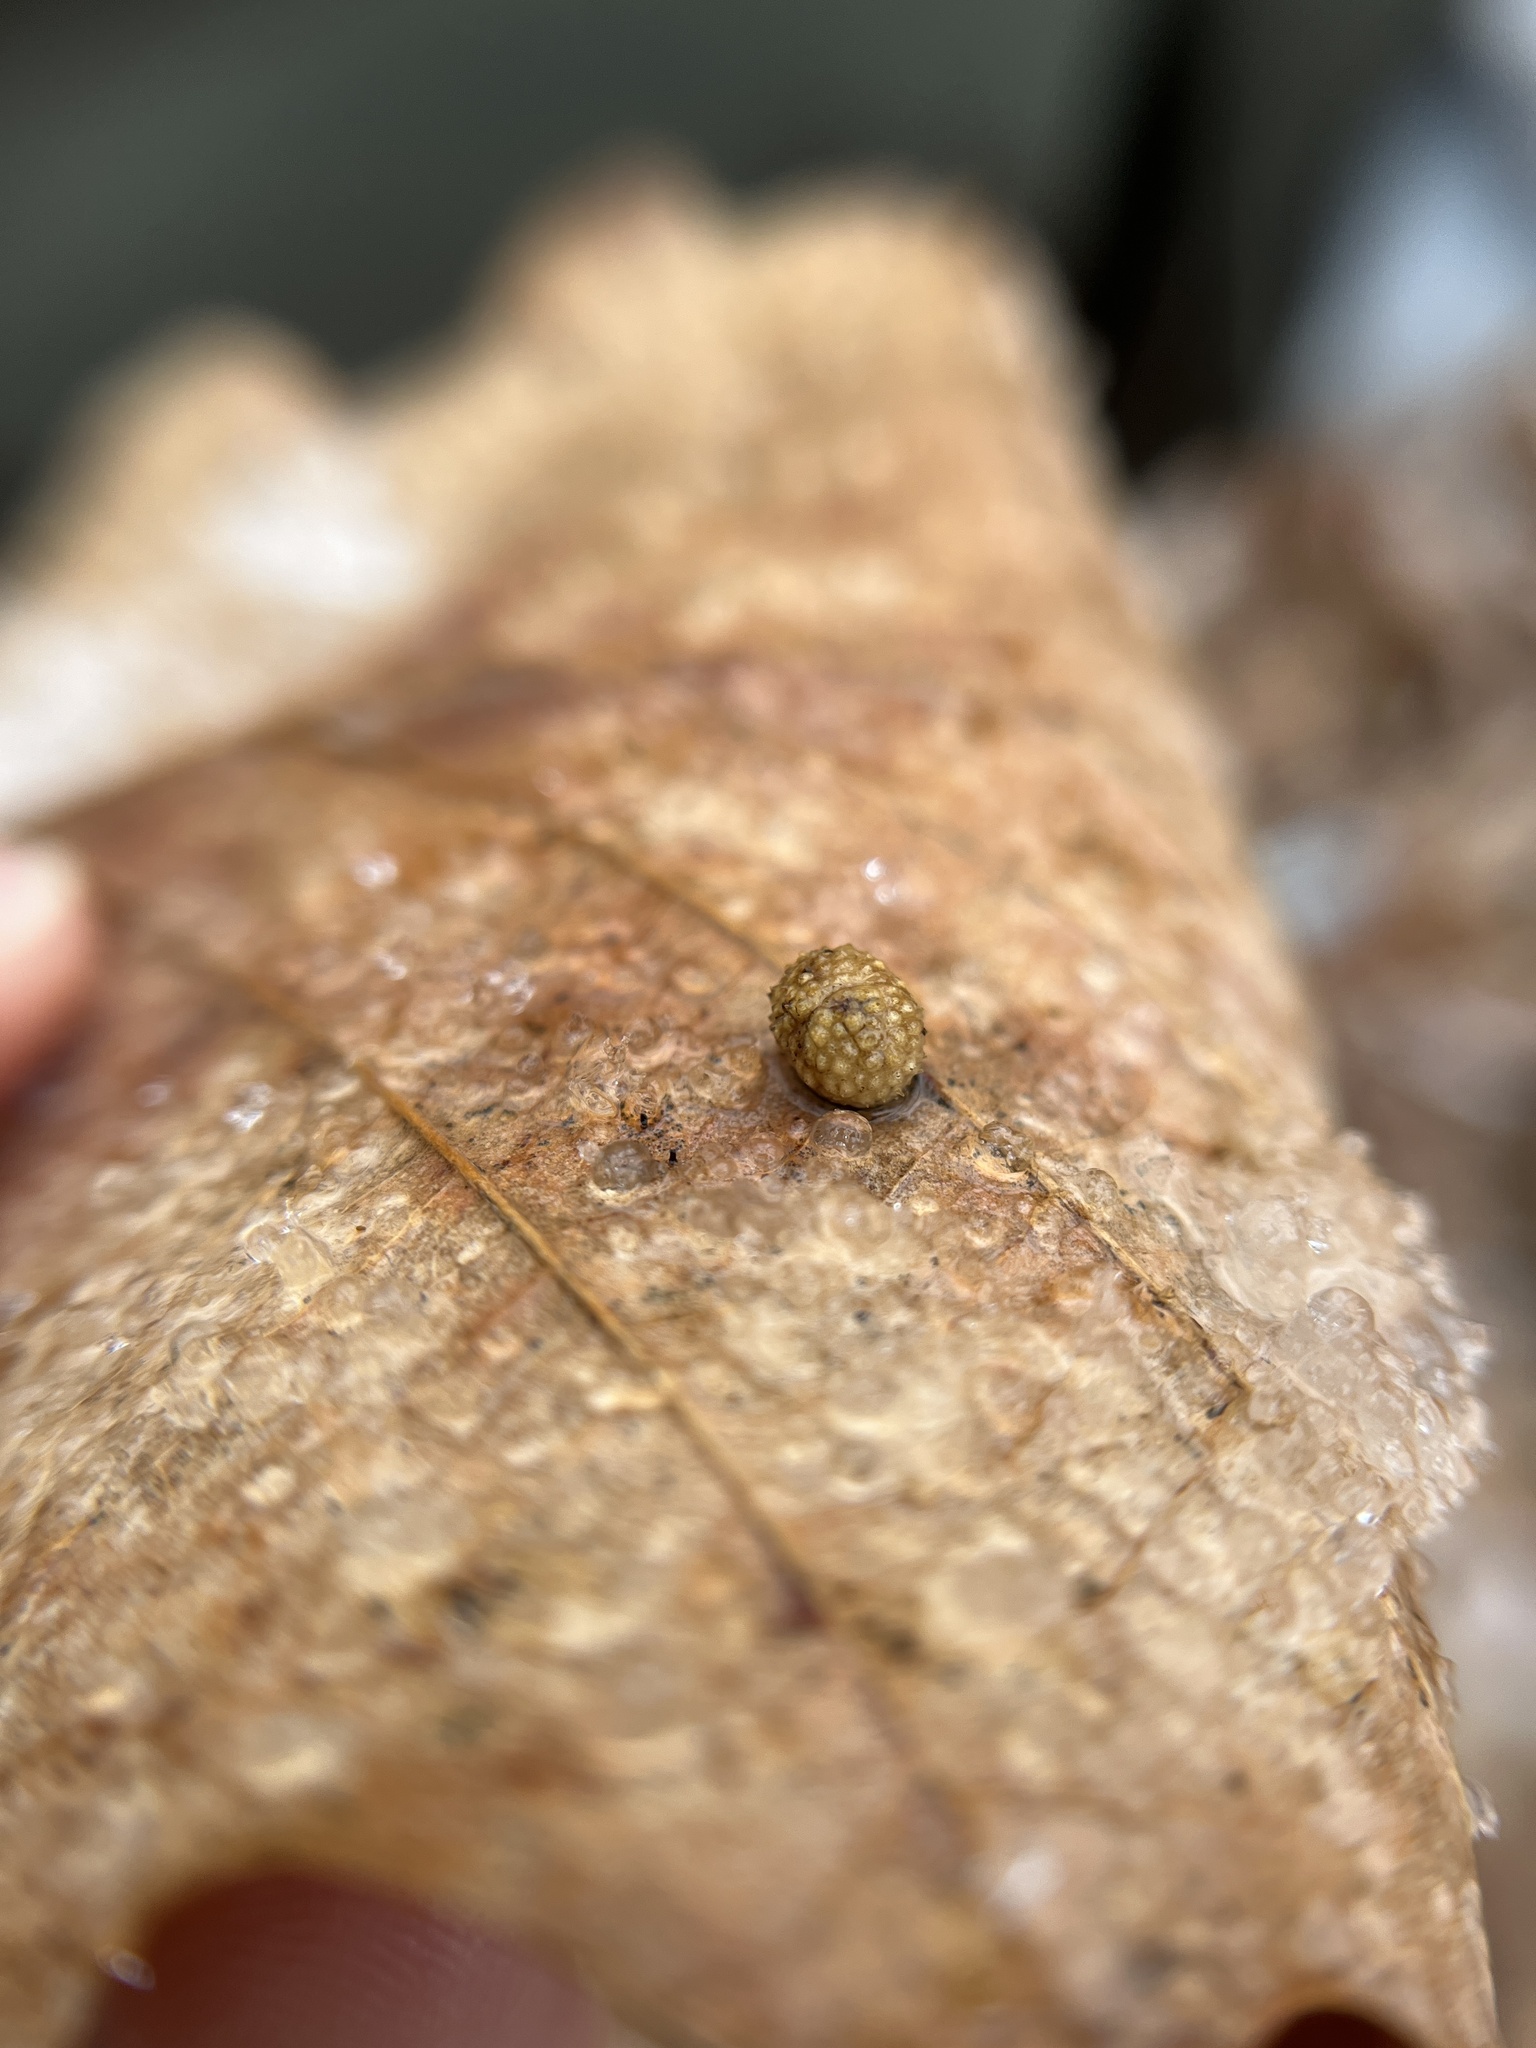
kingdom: Animalia
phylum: Arthropoda
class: Insecta
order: Hymenoptera
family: Cynipidae
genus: Acraspis
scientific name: Acraspis quercushirta
